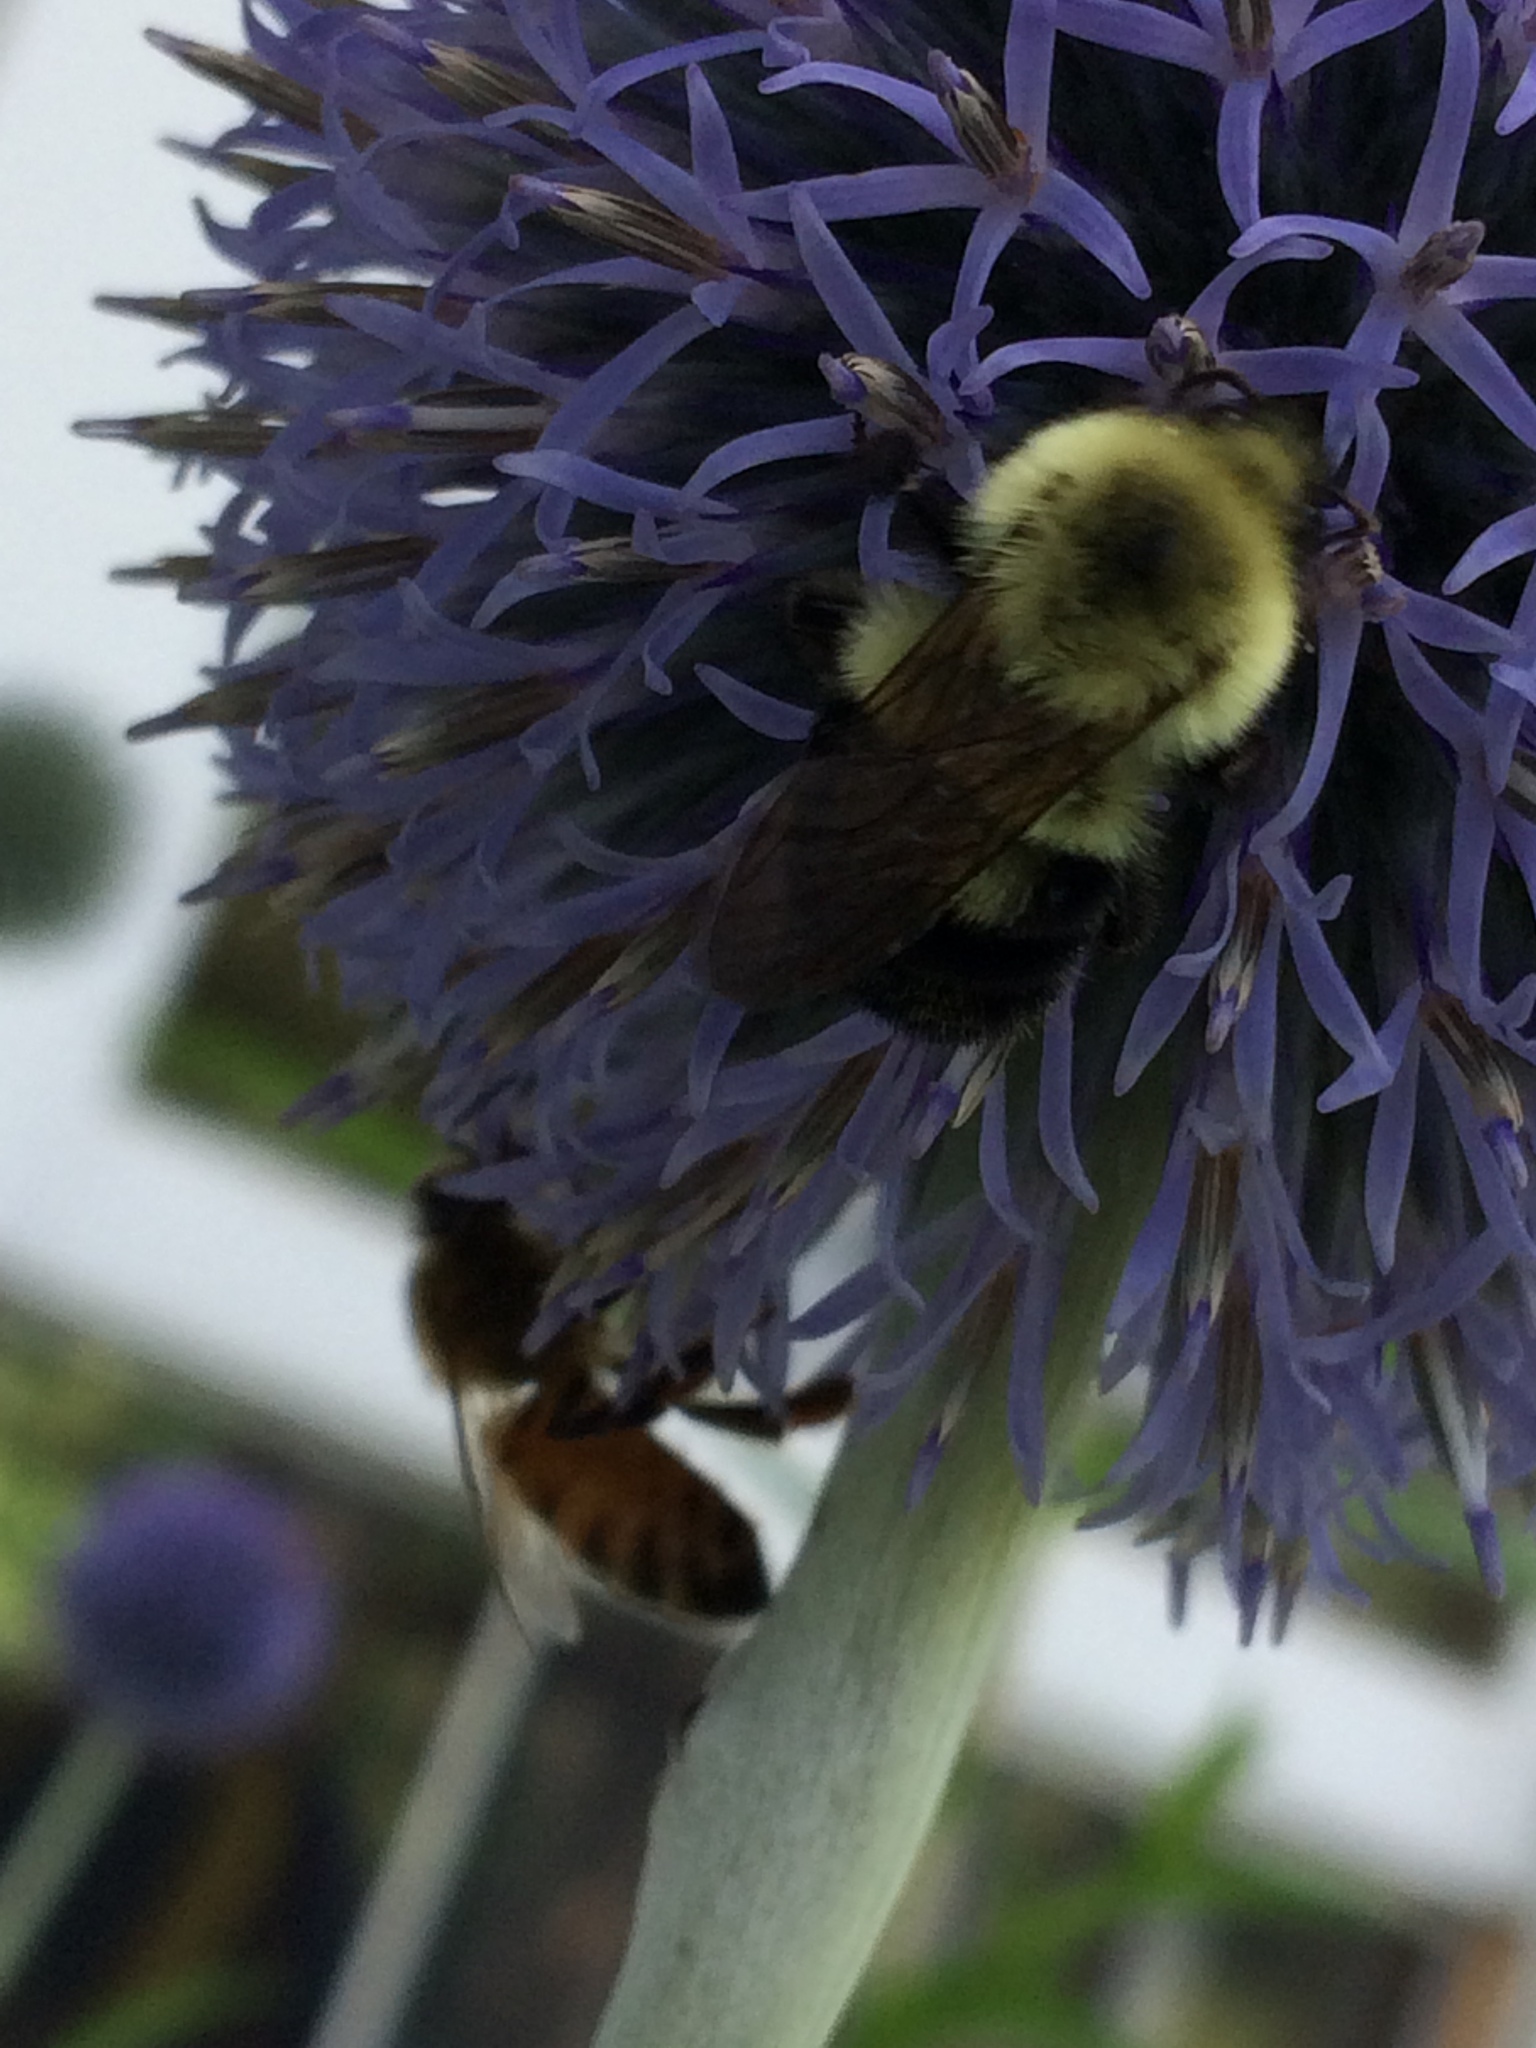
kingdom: Animalia
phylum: Arthropoda
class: Insecta
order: Hymenoptera
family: Apidae
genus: Bombus
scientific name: Bombus bimaculatus
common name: Two-spotted bumble bee
